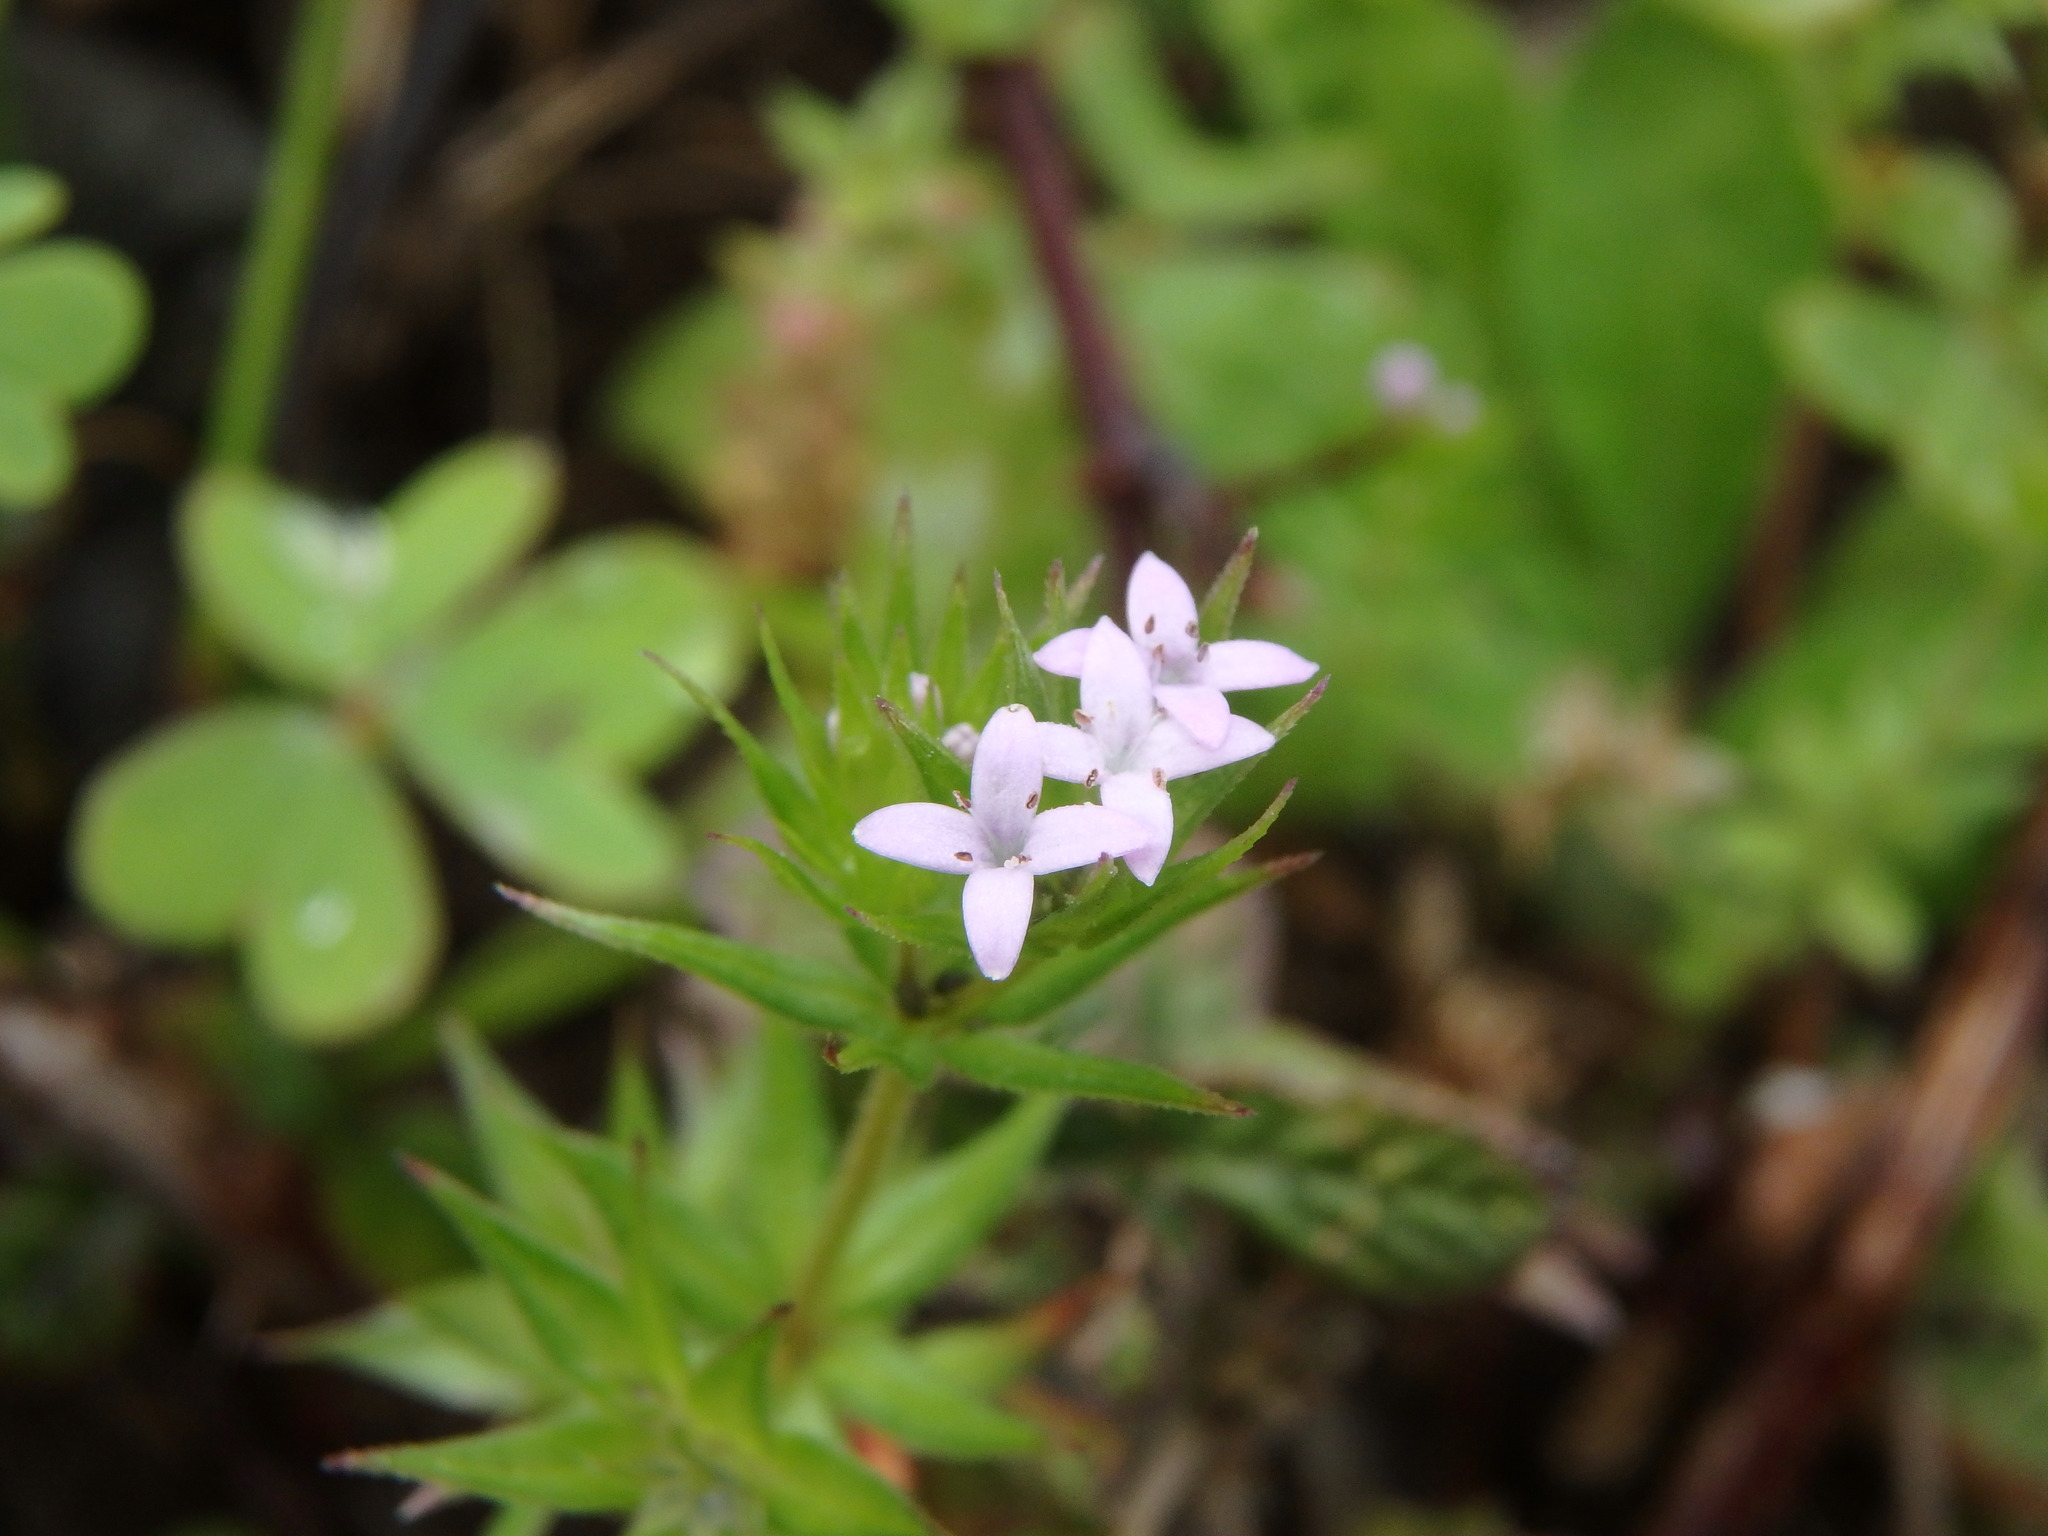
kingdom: Plantae
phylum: Tracheophyta
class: Magnoliopsida
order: Gentianales
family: Rubiaceae
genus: Sherardia
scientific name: Sherardia arvensis
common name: Field madder
